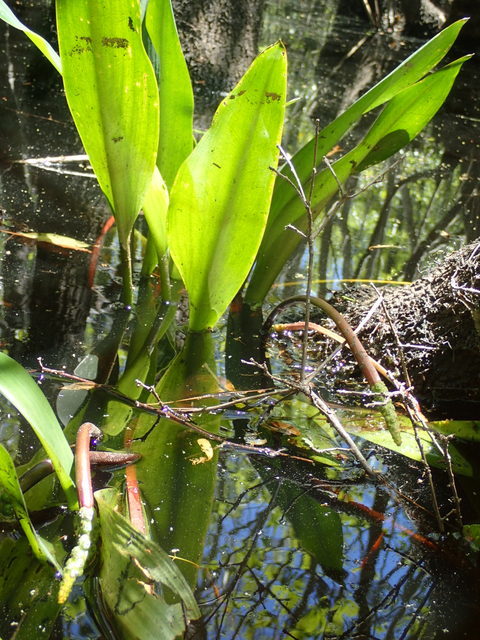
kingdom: Plantae
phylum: Tracheophyta
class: Liliopsida
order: Alismatales
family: Araceae
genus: Orontium
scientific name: Orontium aquaticum
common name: Golden-club
